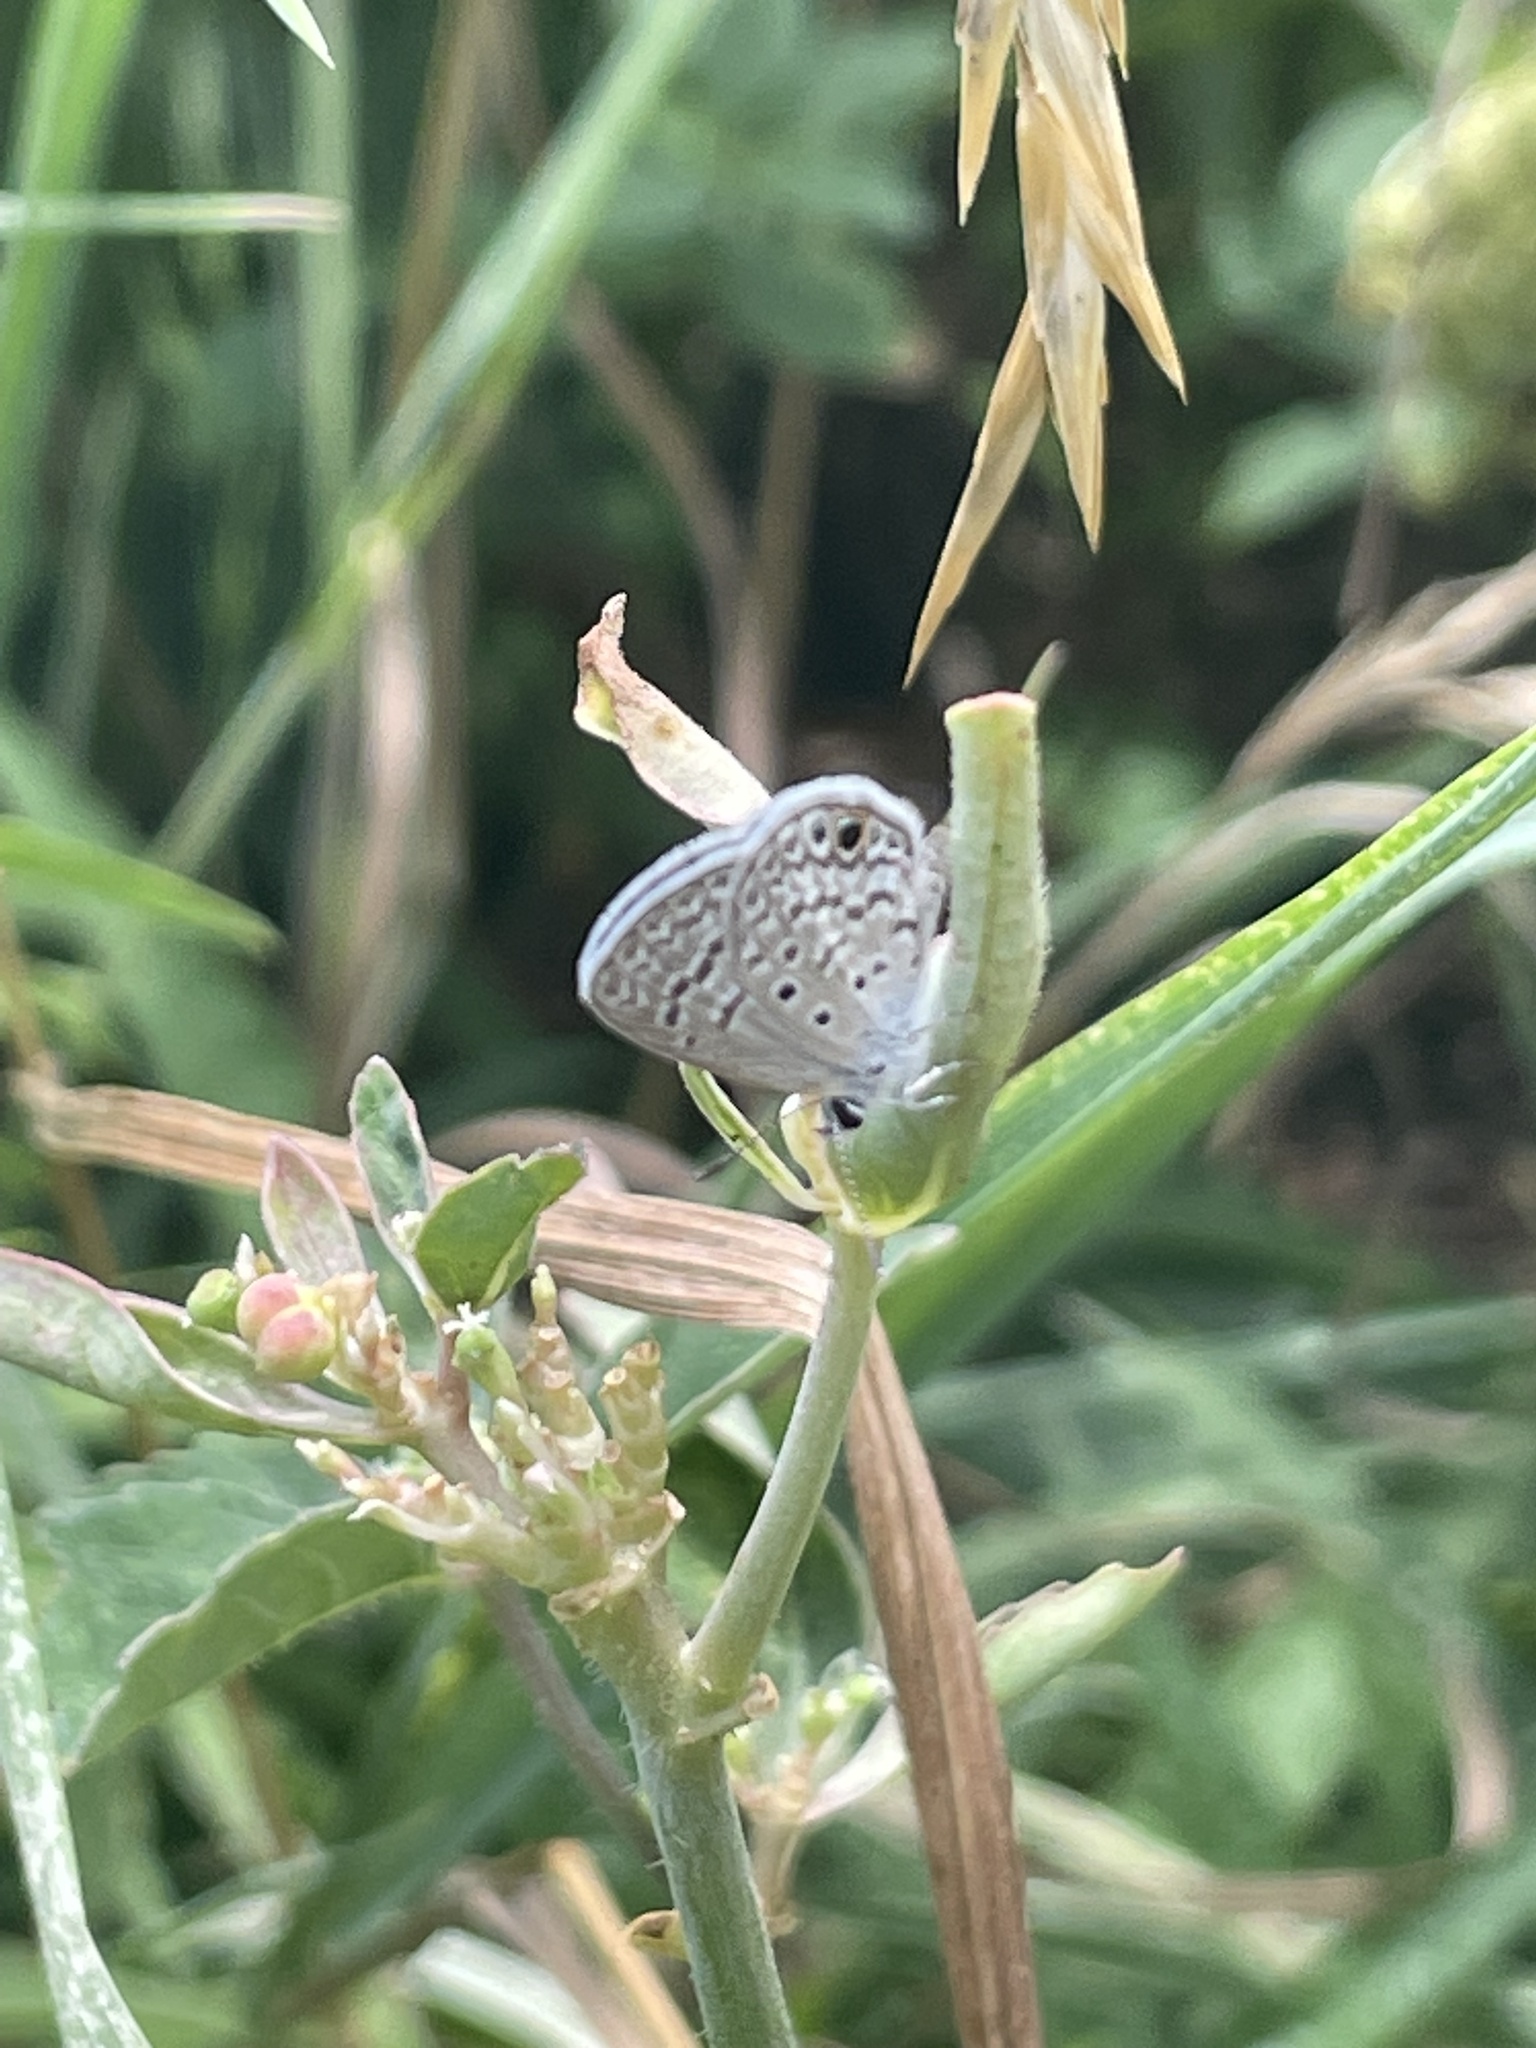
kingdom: Animalia
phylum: Arthropoda
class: Insecta
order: Lepidoptera
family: Lycaenidae
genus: Hemiargus
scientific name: Hemiargus ceraunus
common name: Ceraunus blue
